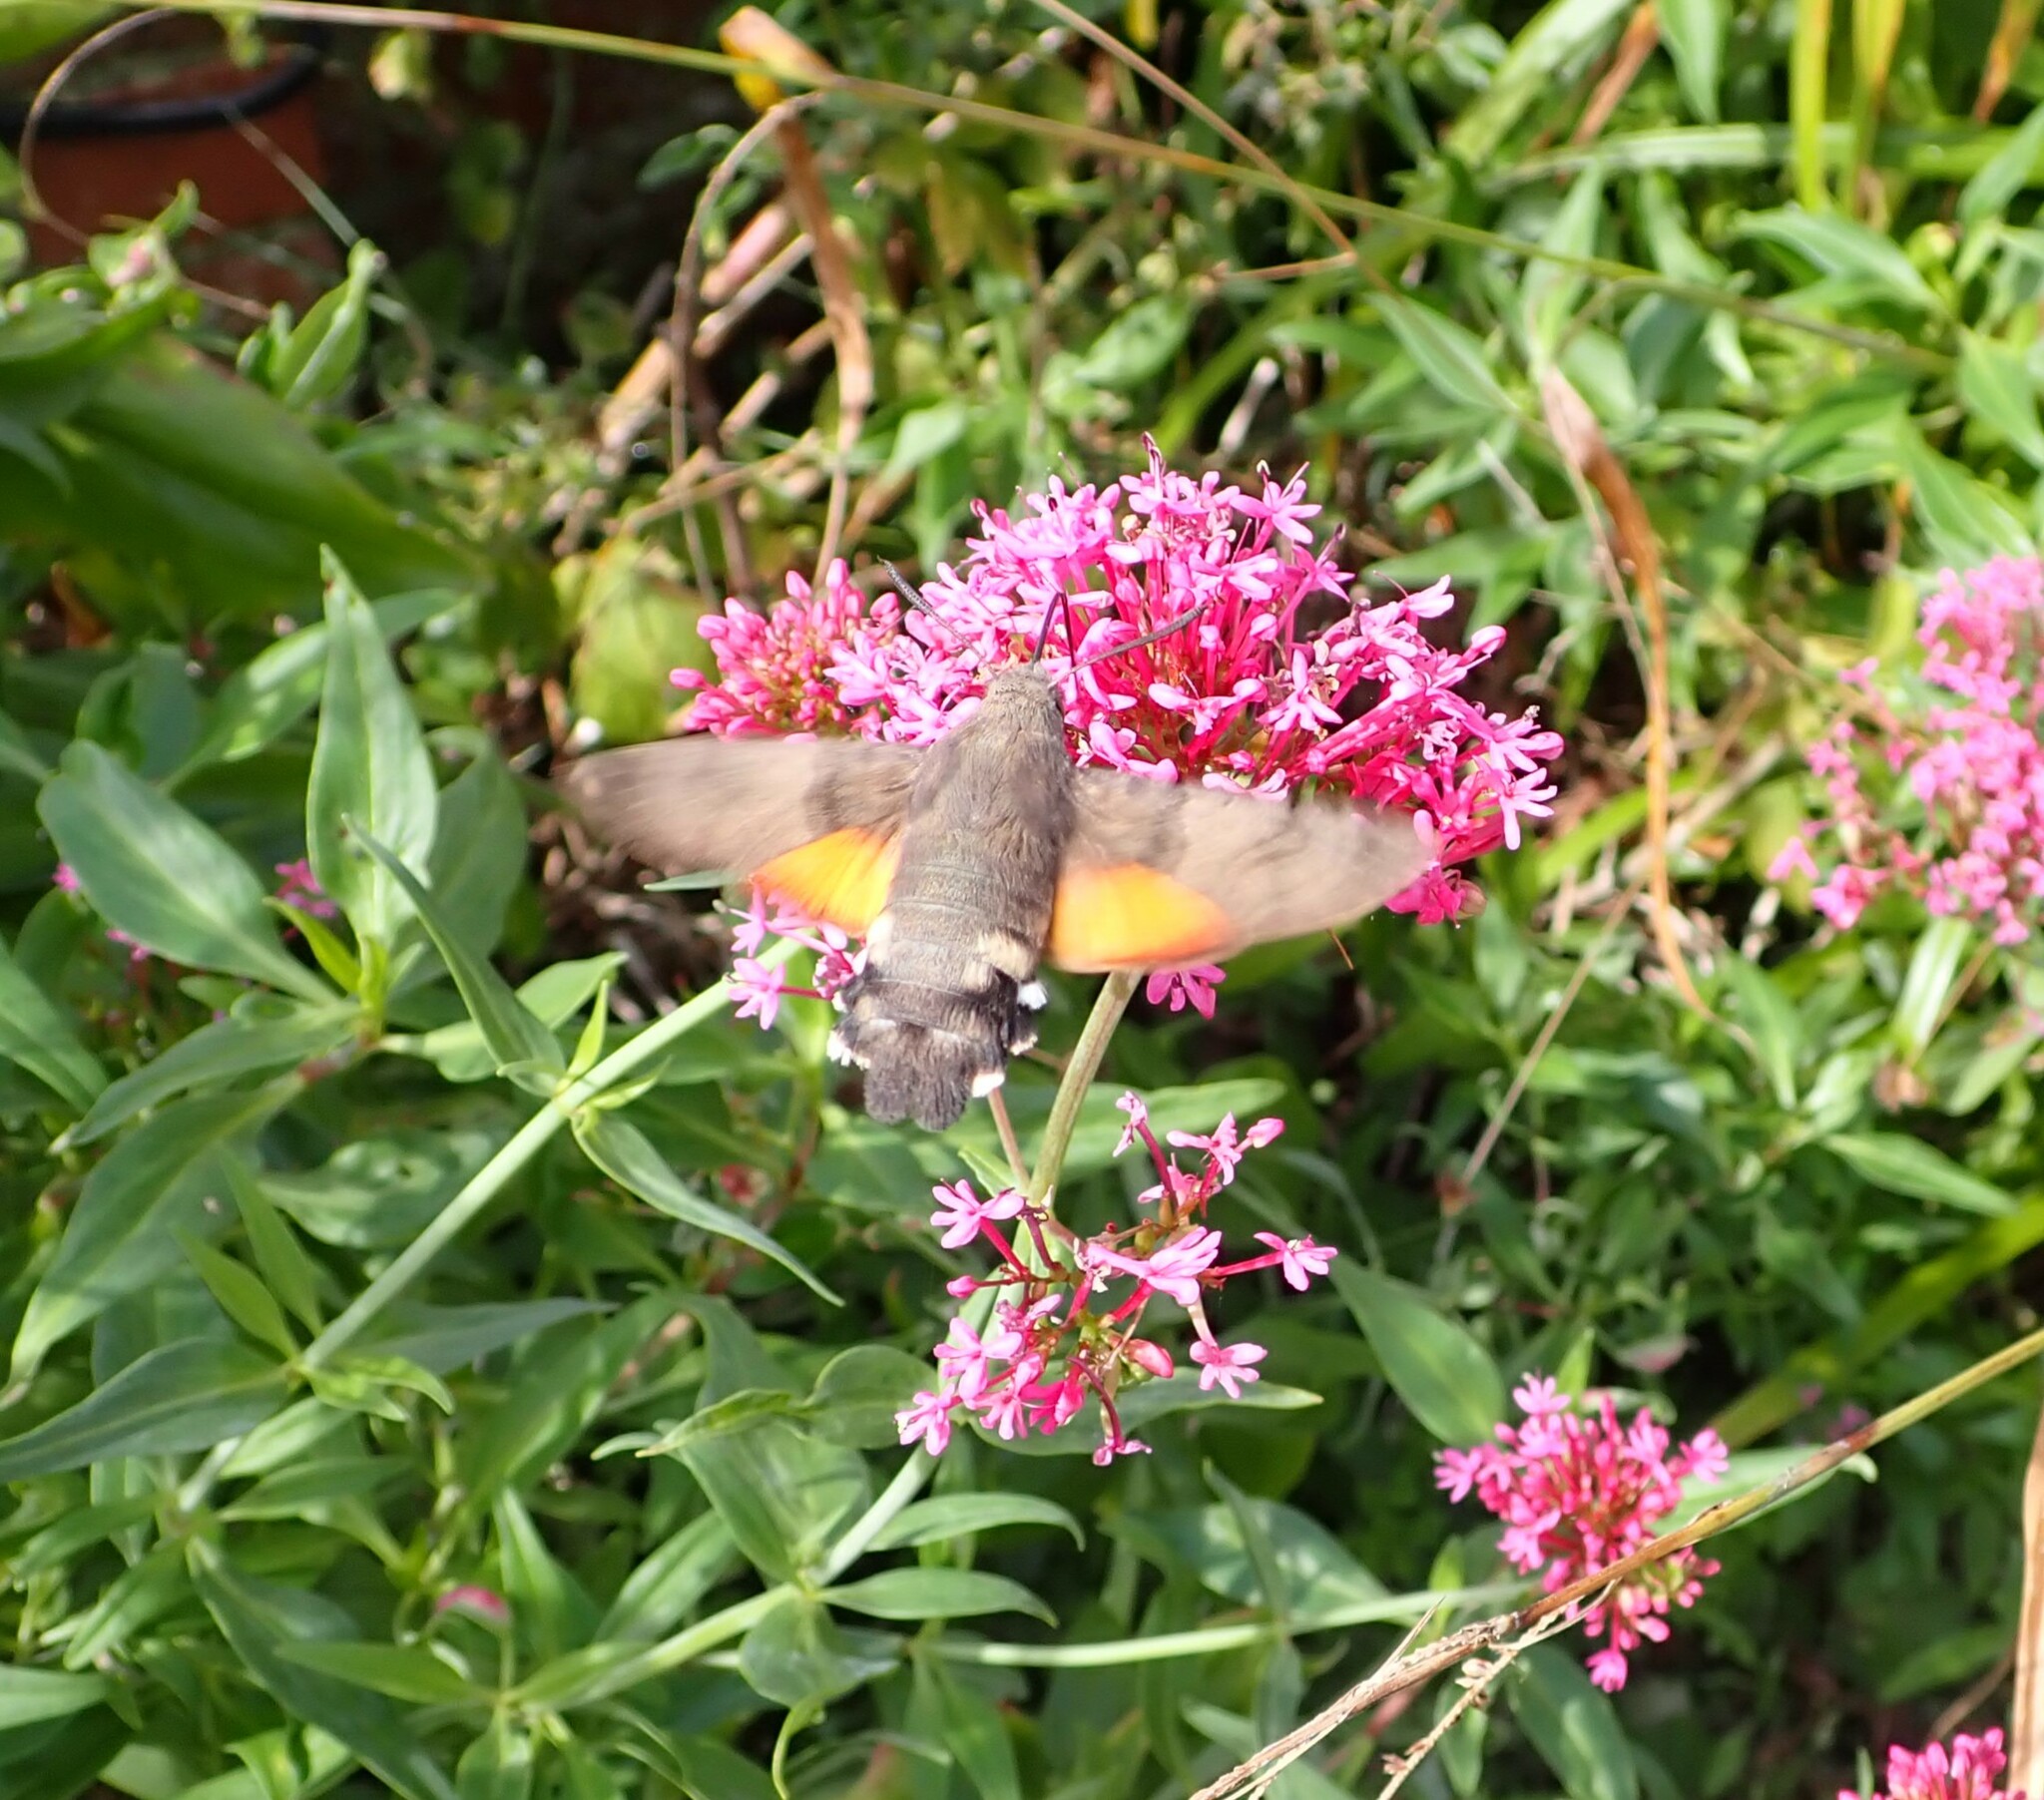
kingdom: Animalia
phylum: Arthropoda
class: Insecta
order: Lepidoptera
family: Sphingidae
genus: Macroglossum
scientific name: Macroglossum stellatarum
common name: Humming-bird hawk-moth
